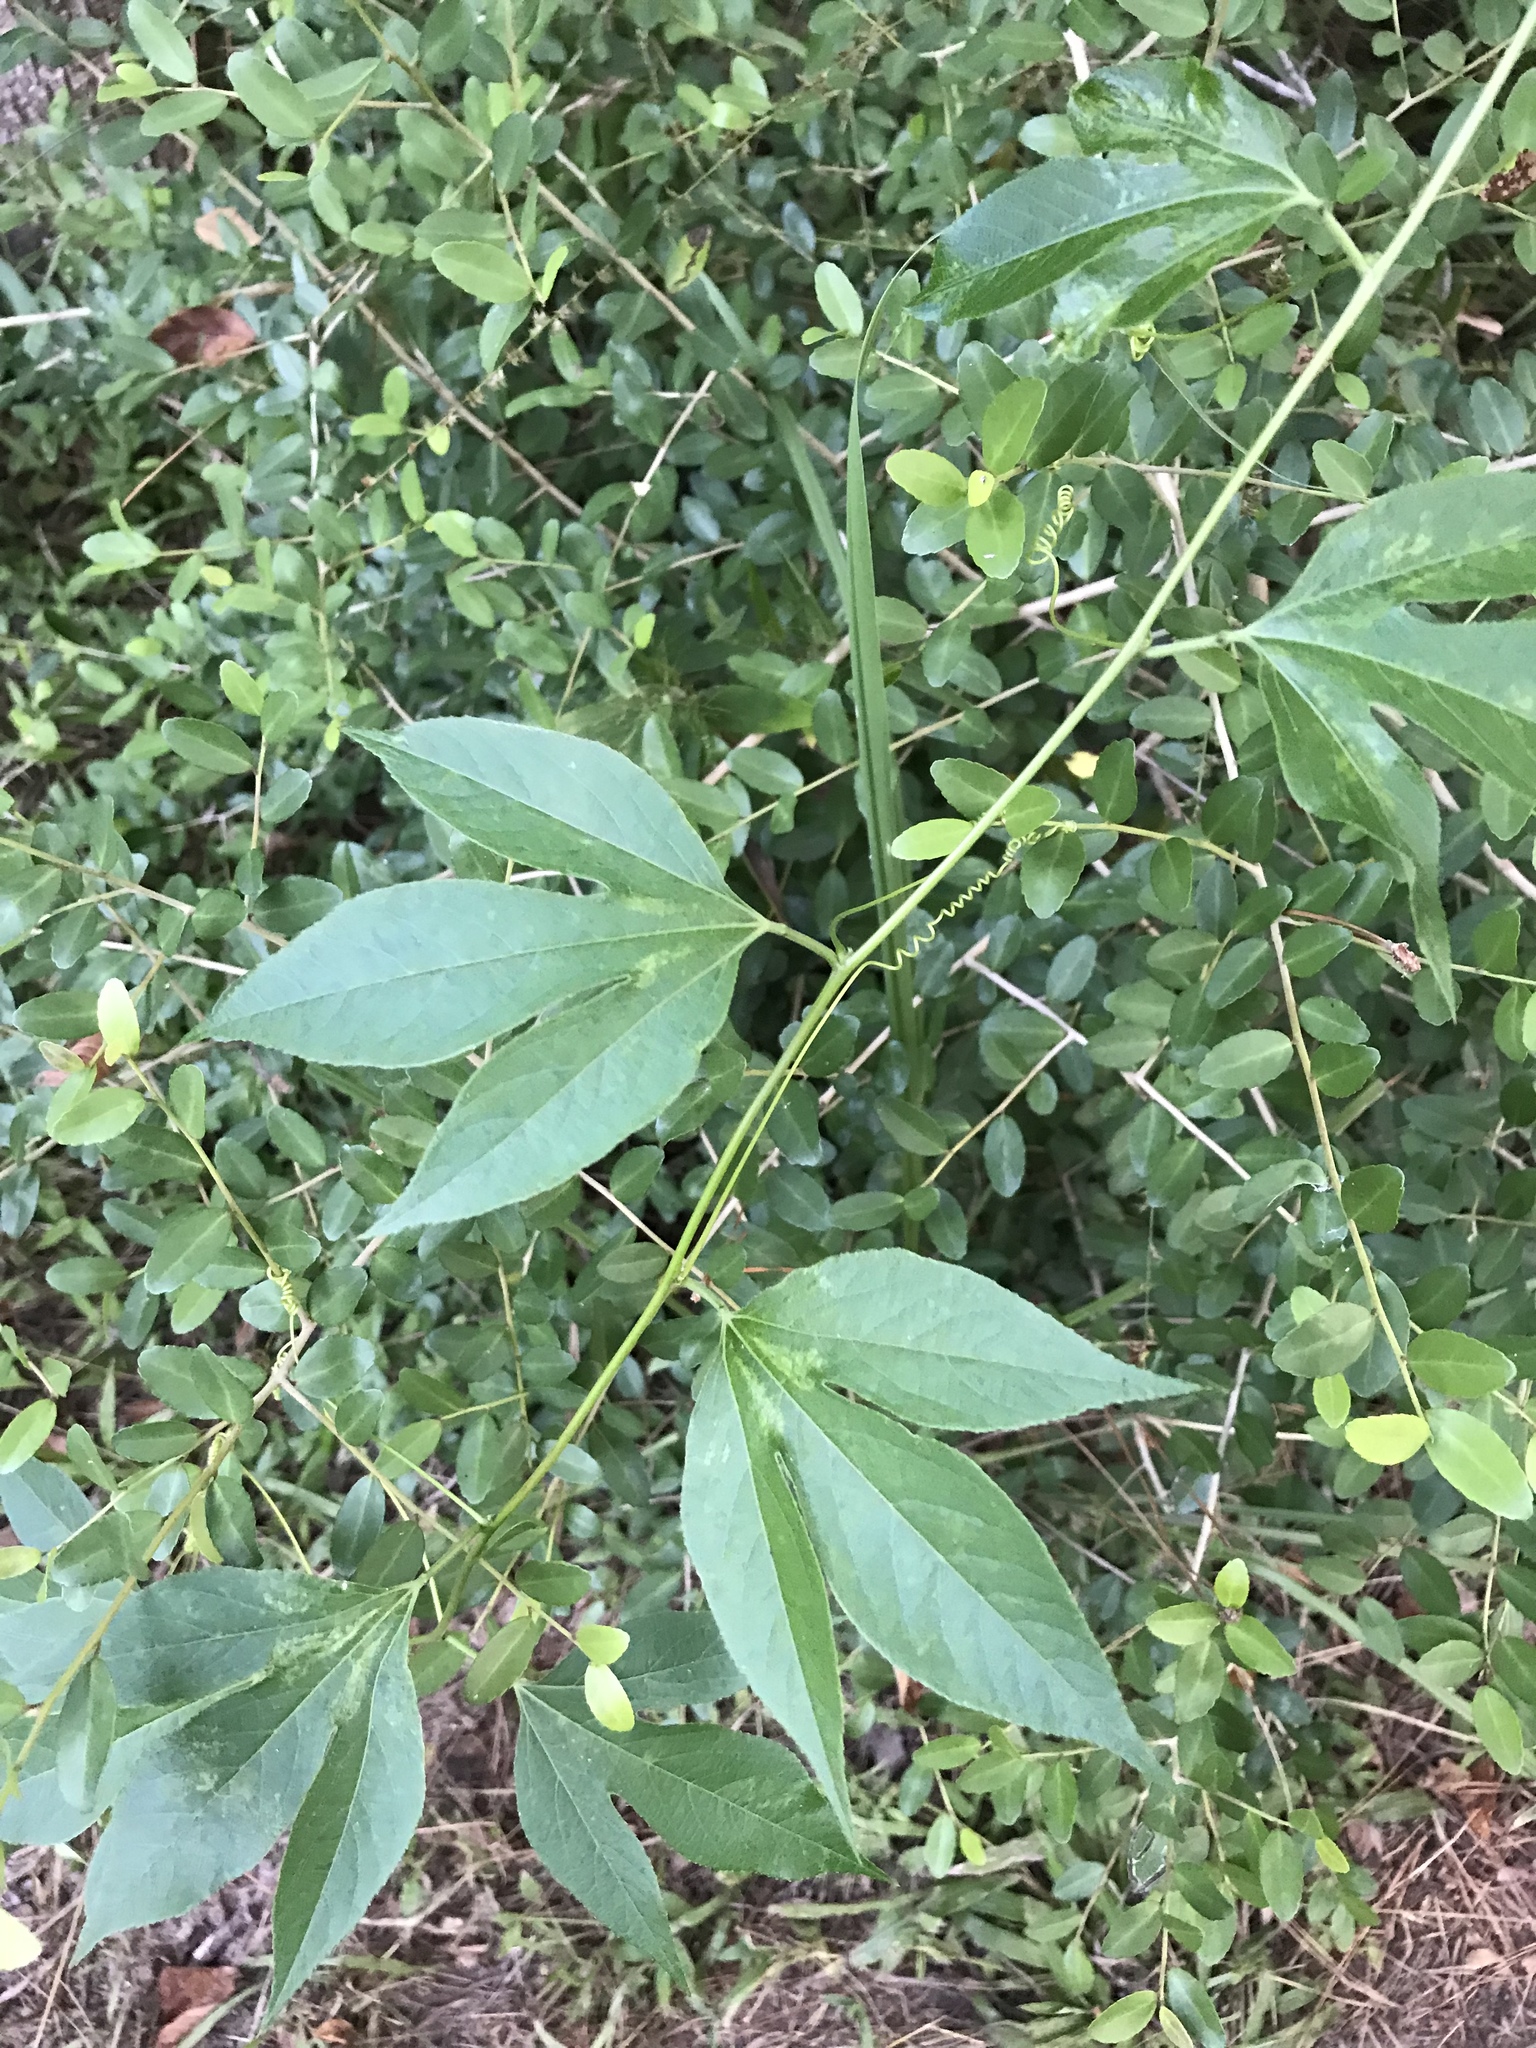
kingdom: Plantae
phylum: Tracheophyta
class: Magnoliopsida
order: Malpighiales
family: Passifloraceae
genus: Passiflora
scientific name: Passiflora incarnata
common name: Apricot-vine
